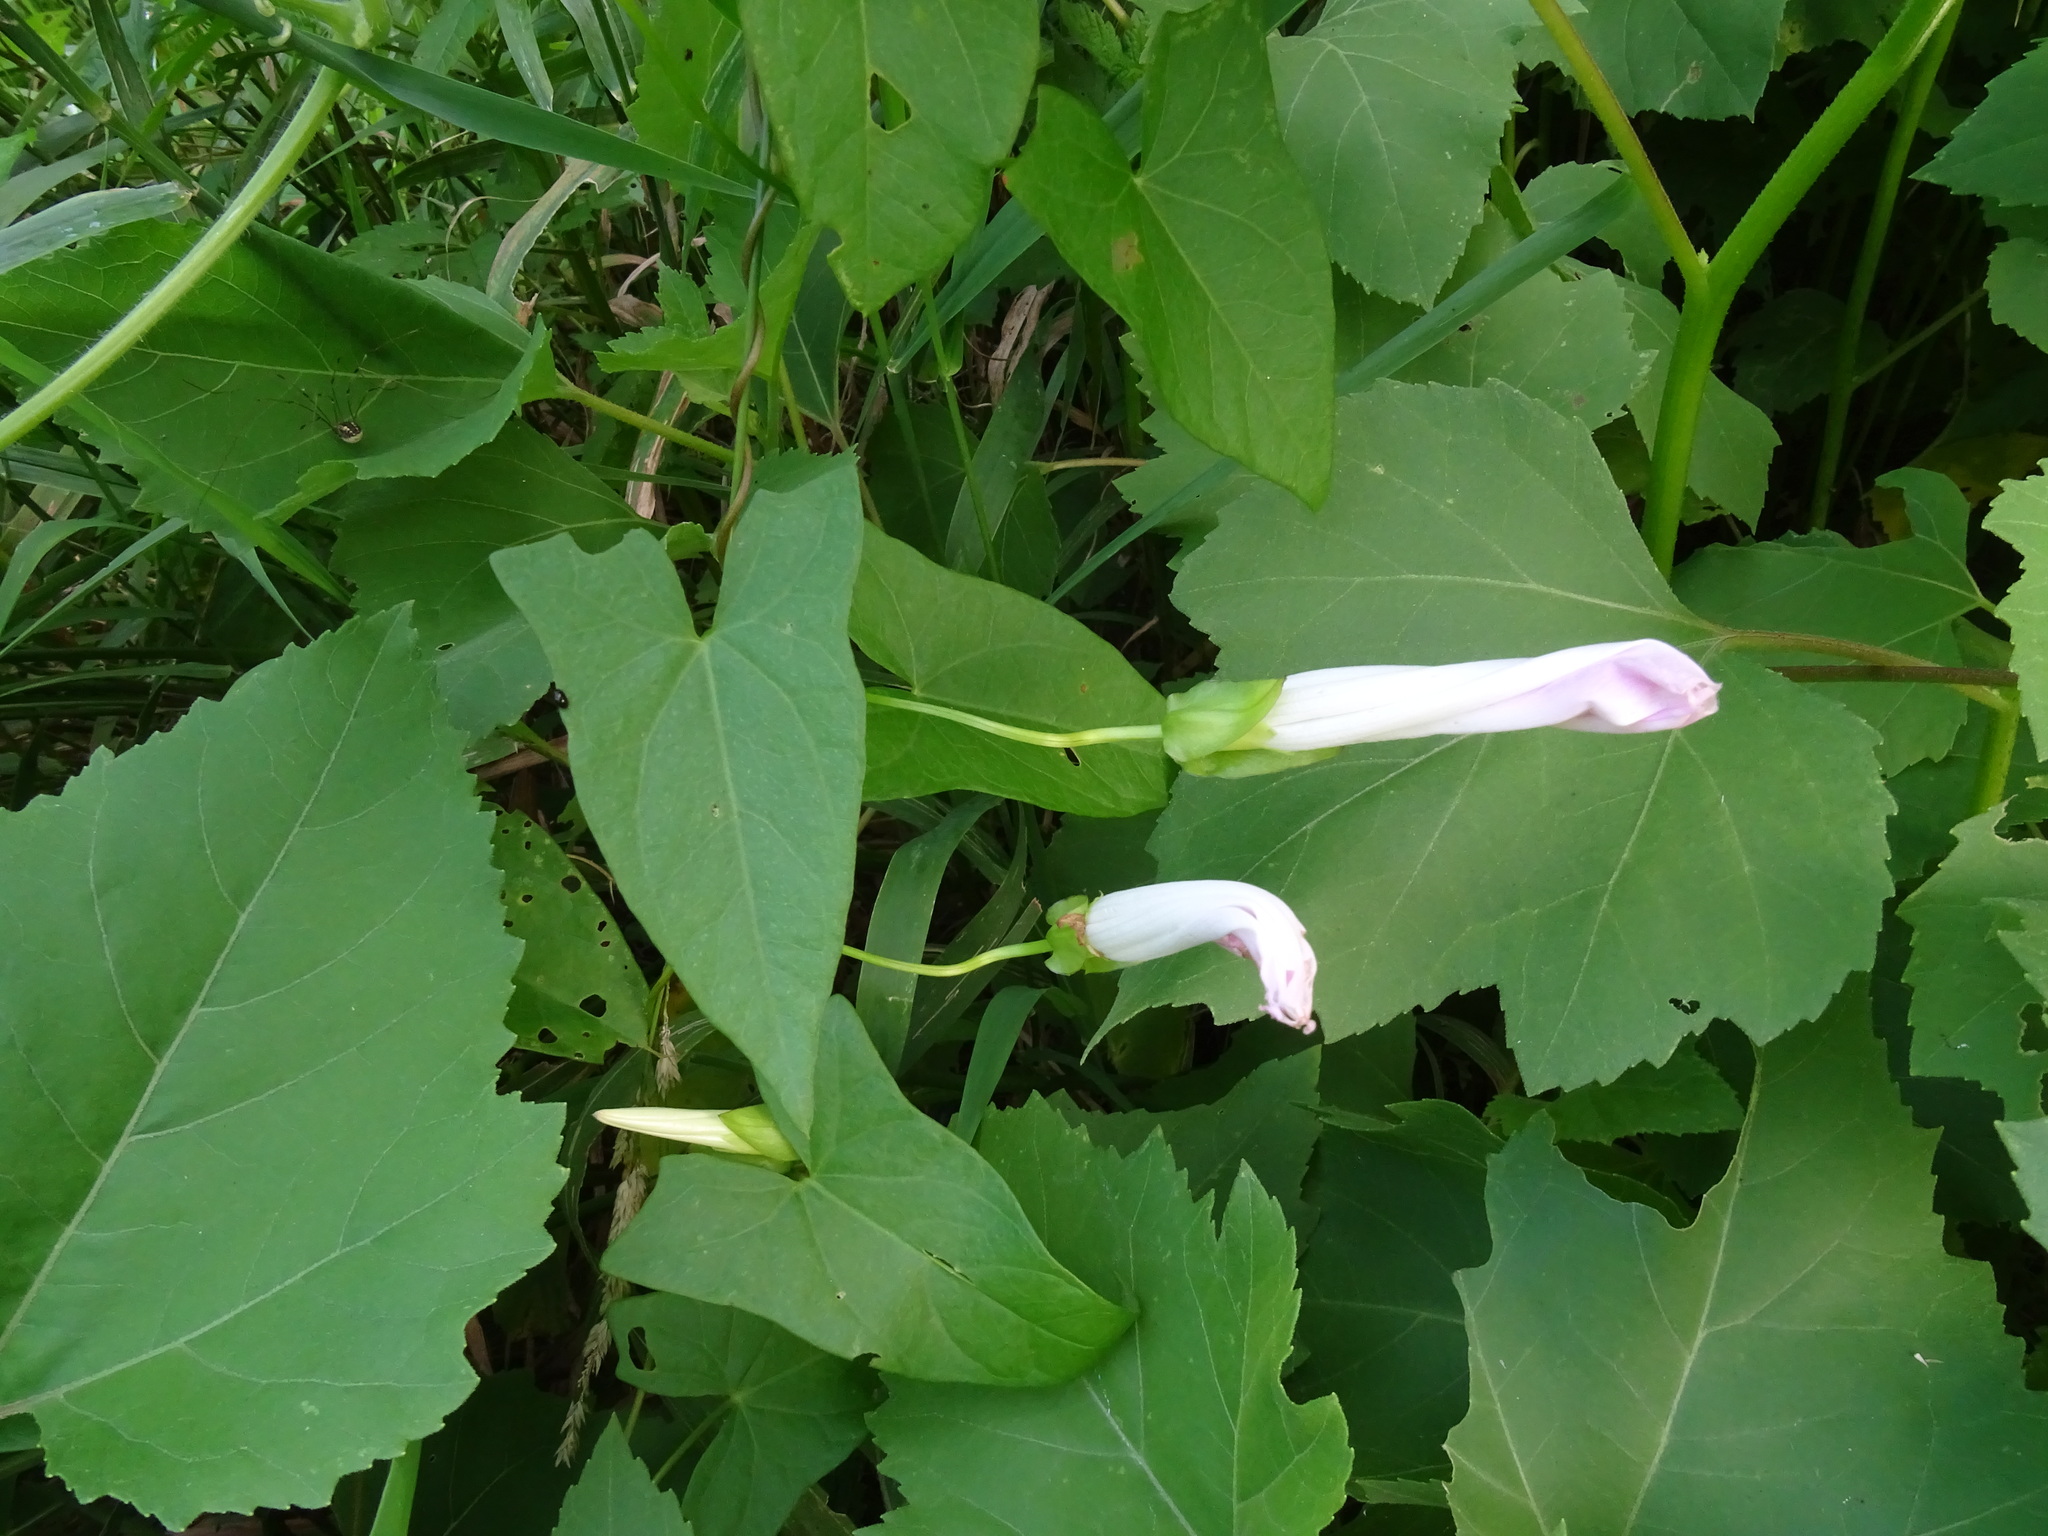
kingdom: Plantae
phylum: Tracheophyta
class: Magnoliopsida
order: Solanales
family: Convolvulaceae
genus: Calystegia
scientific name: Calystegia sepium
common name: Hedge bindweed
